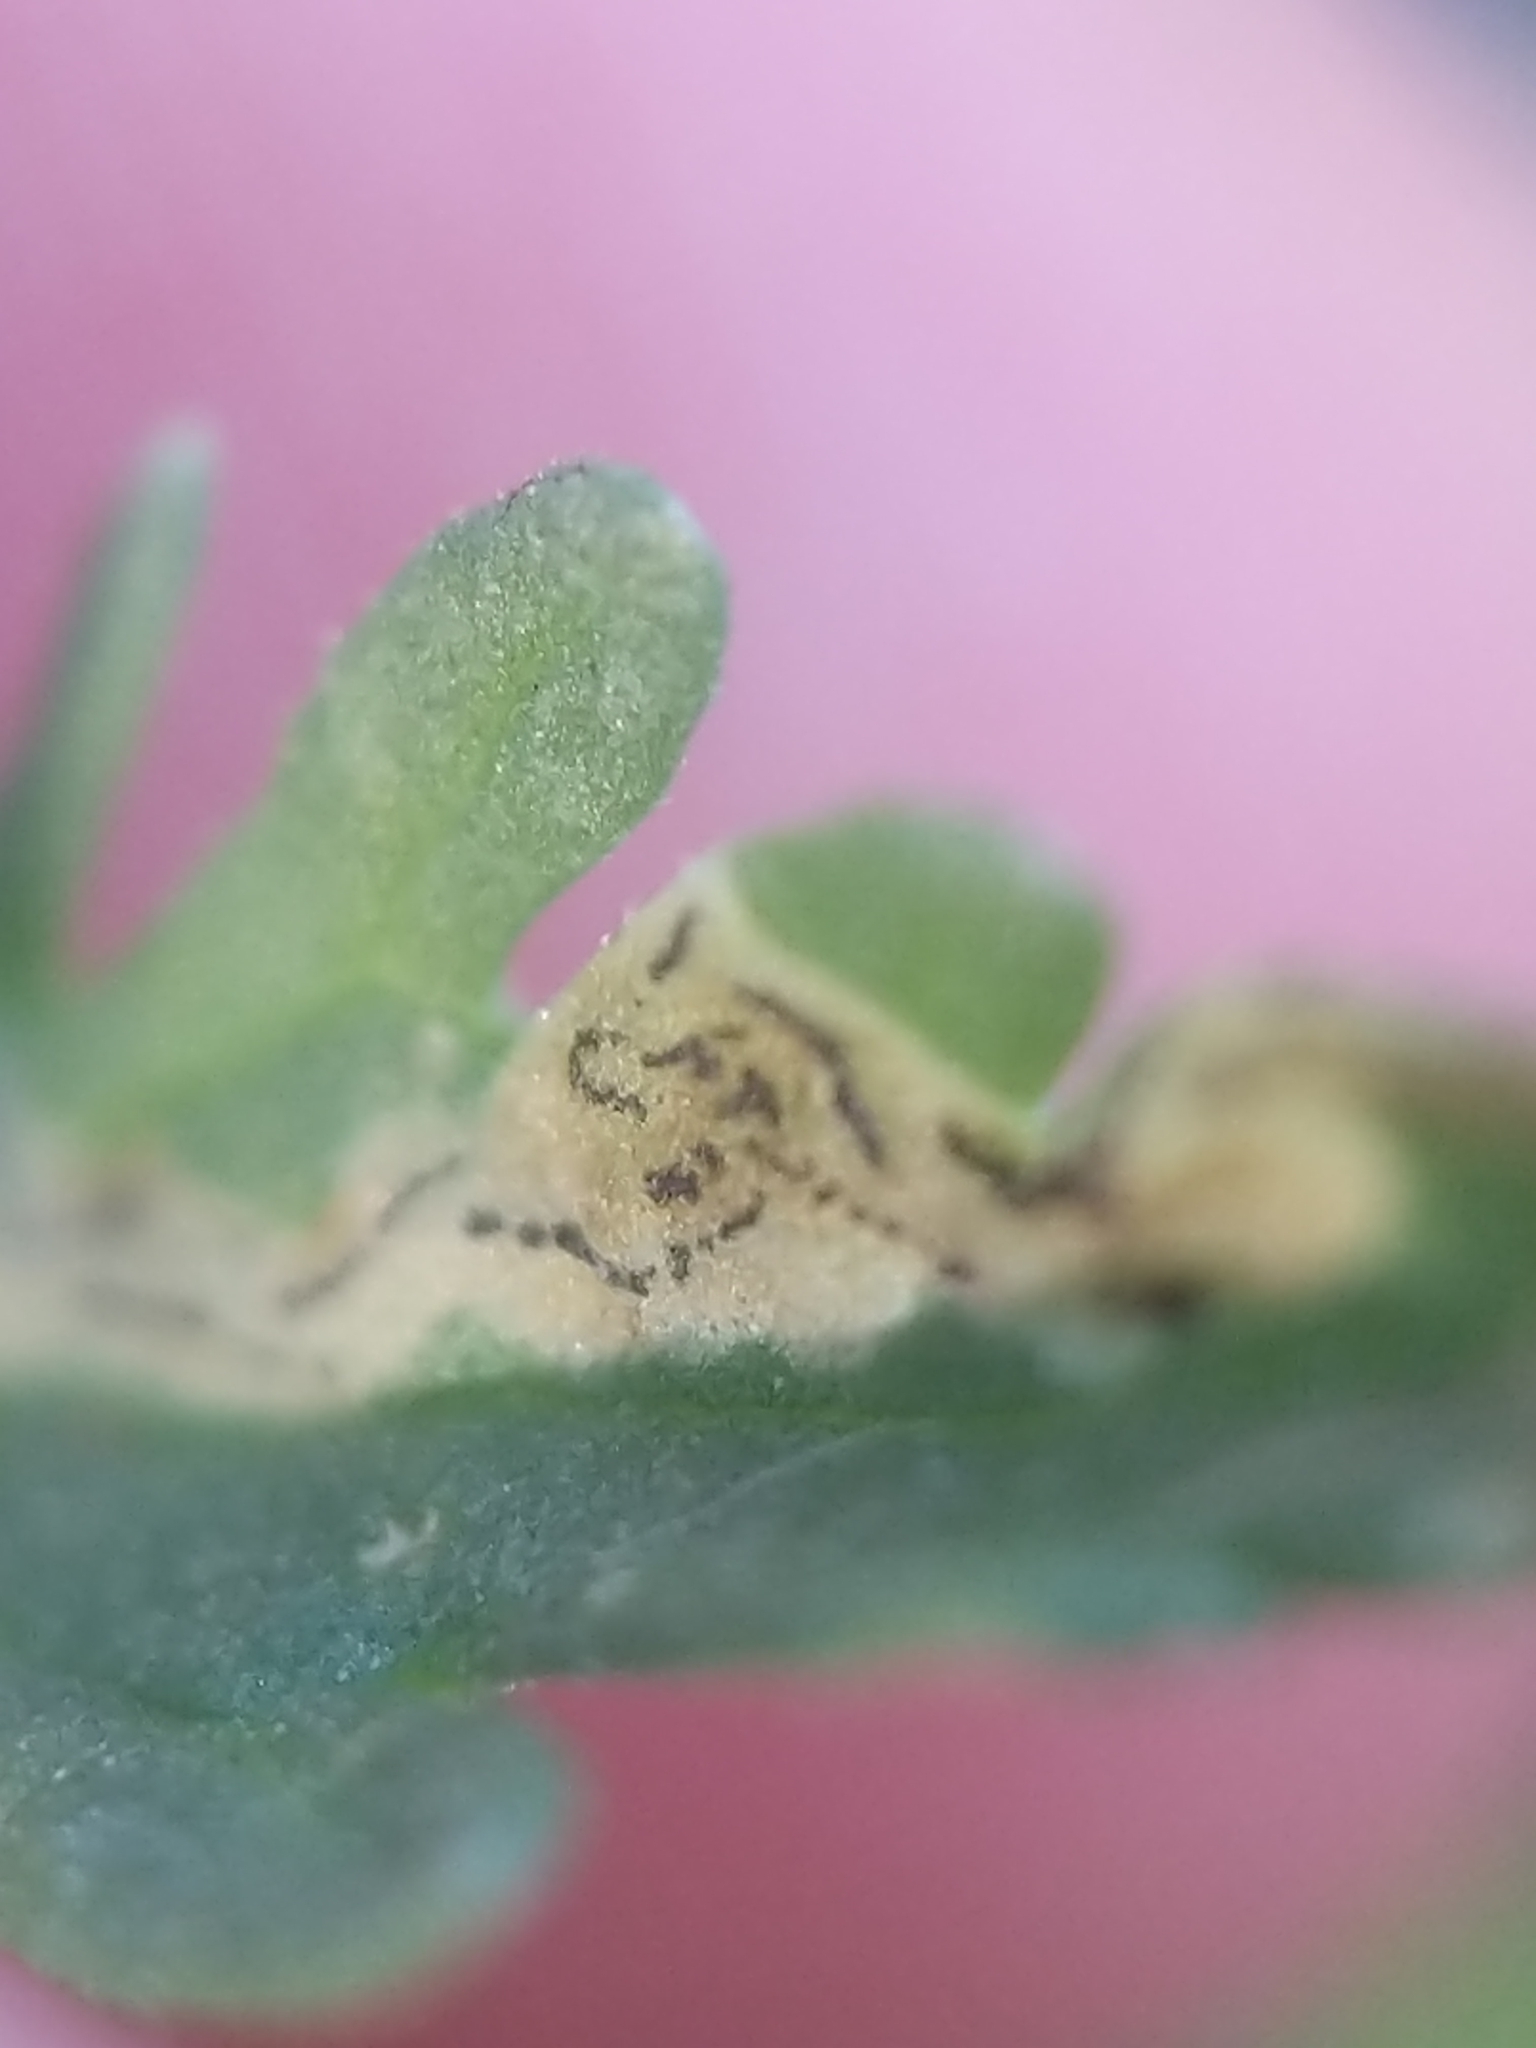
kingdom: Plantae
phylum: Tracheophyta
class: Magnoliopsida
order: Lamiales
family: Lamiaceae
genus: Teucrium
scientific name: Teucrium cubense
